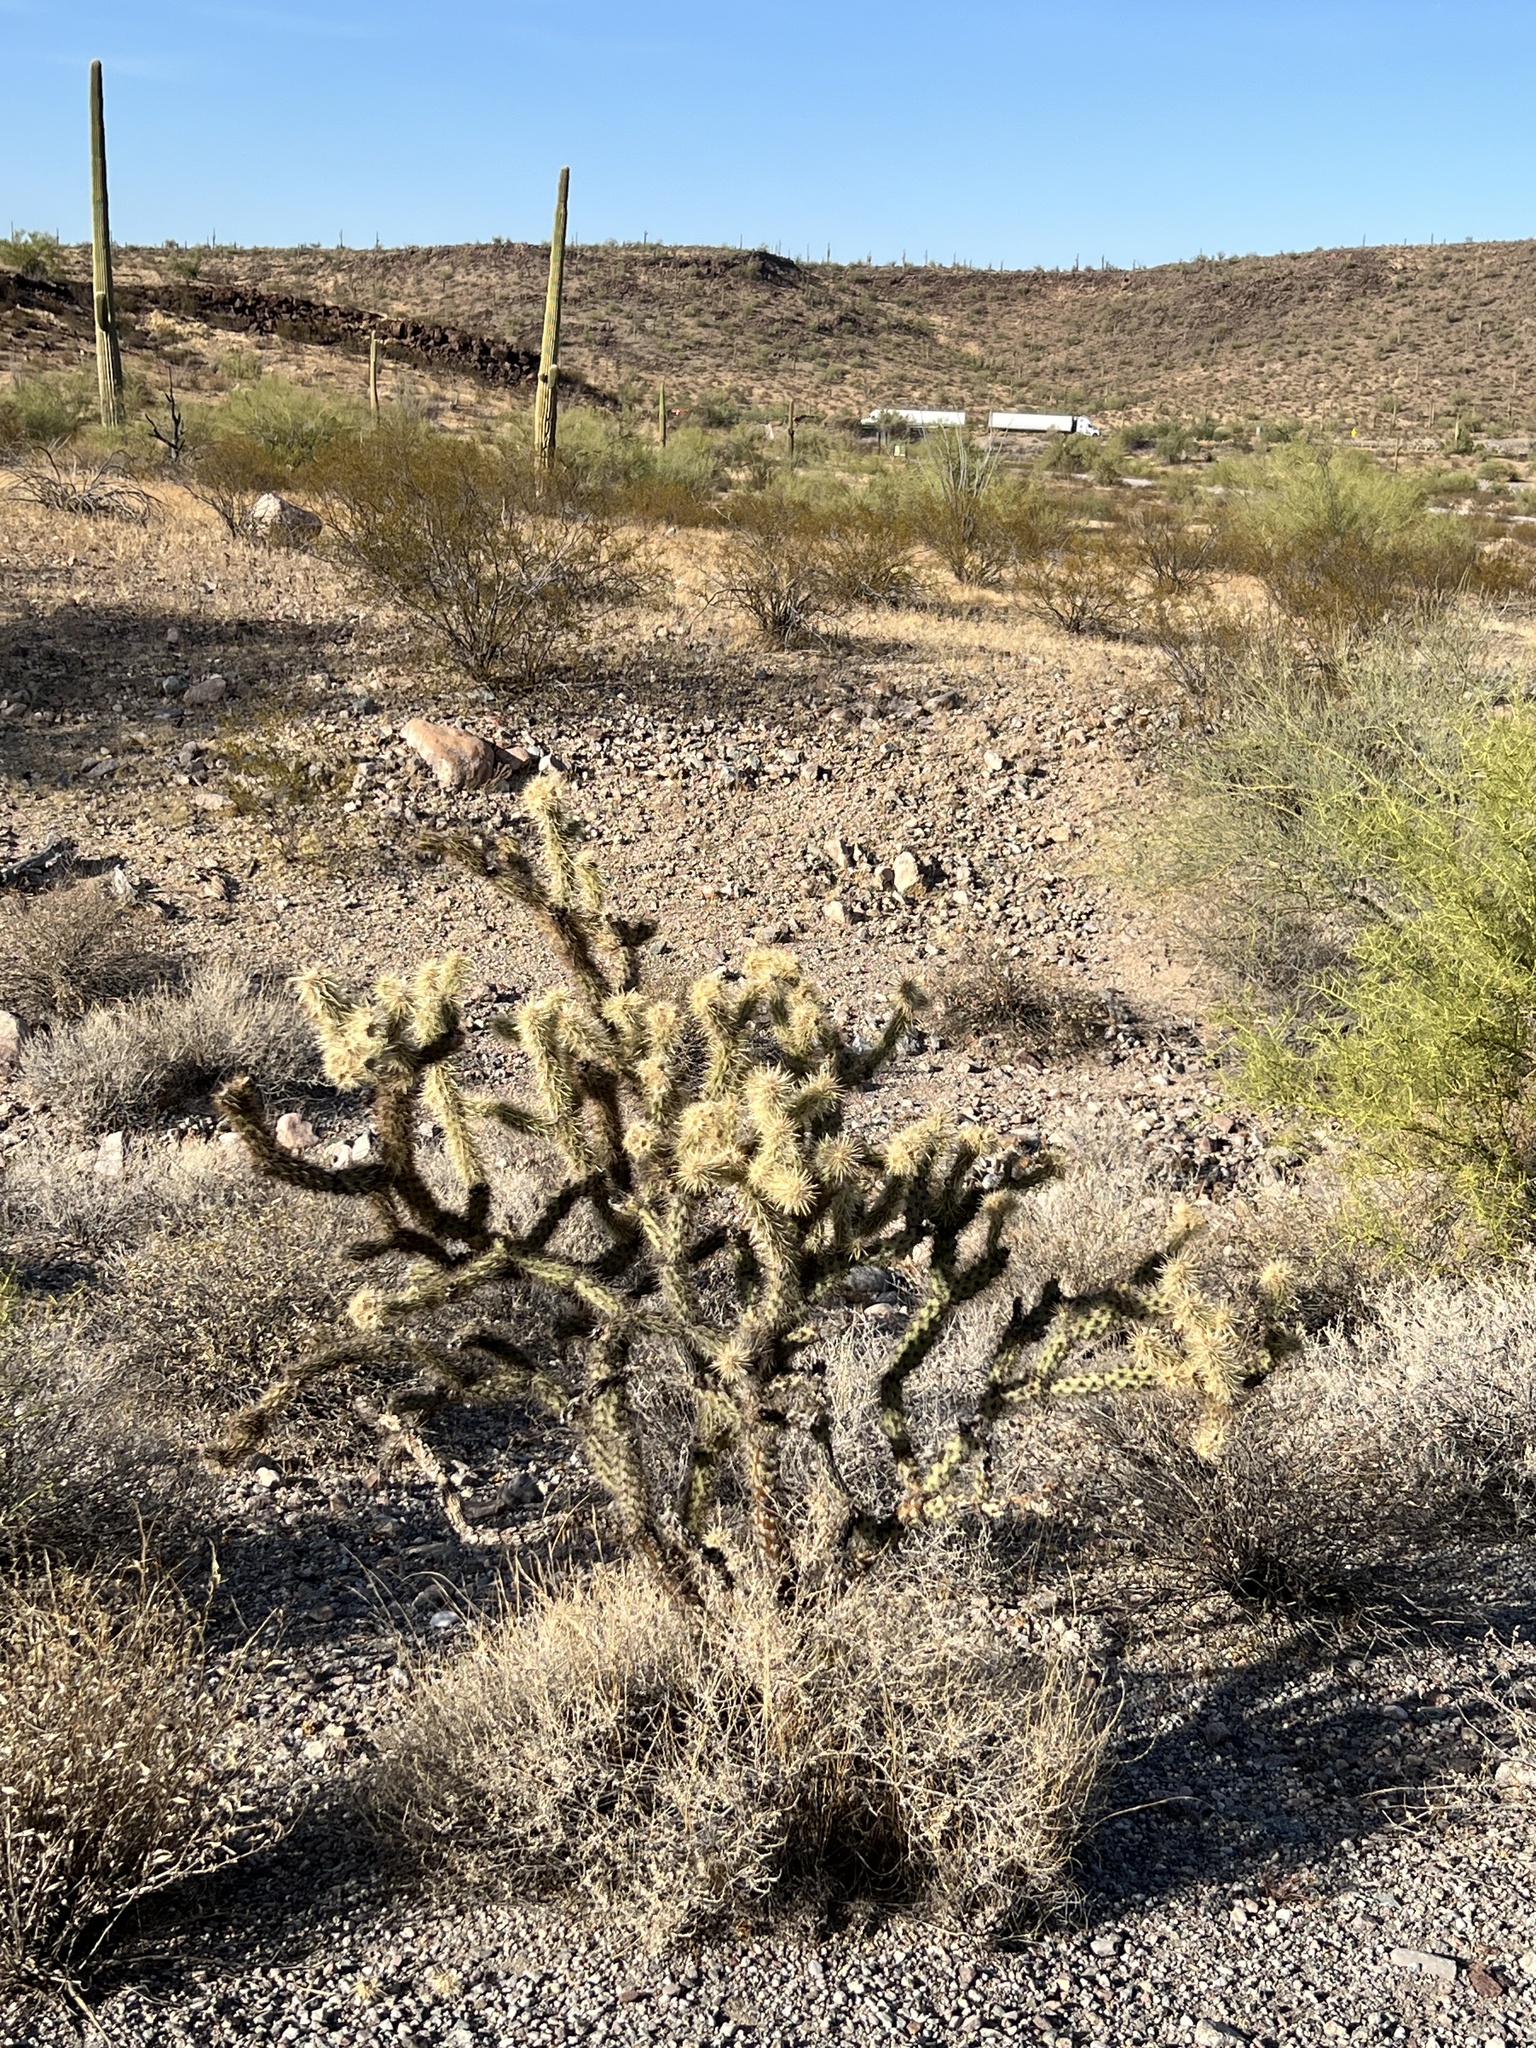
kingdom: Plantae
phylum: Tracheophyta
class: Magnoliopsida
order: Caryophyllales
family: Cactaceae
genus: Cylindropuntia
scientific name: Cylindropuntia acanthocarpa
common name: Buckhorn cholla
